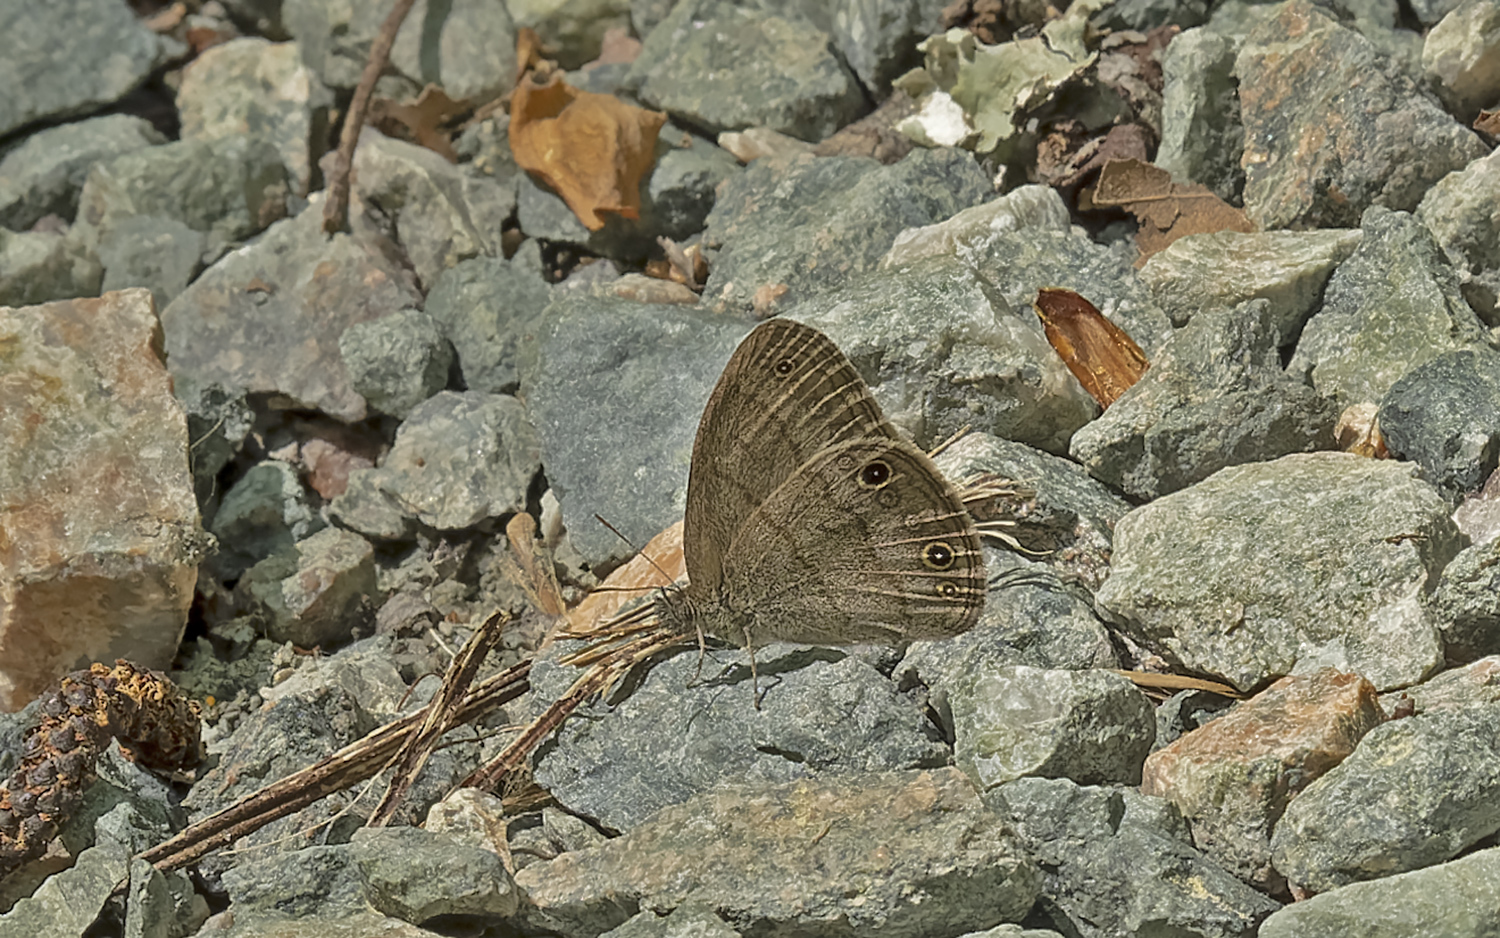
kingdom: Animalia
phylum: Arthropoda
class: Insecta
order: Lepidoptera
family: Nymphalidae
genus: Hermeuptychia
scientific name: Hermeuptychia hermes
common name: Hermes satyr
